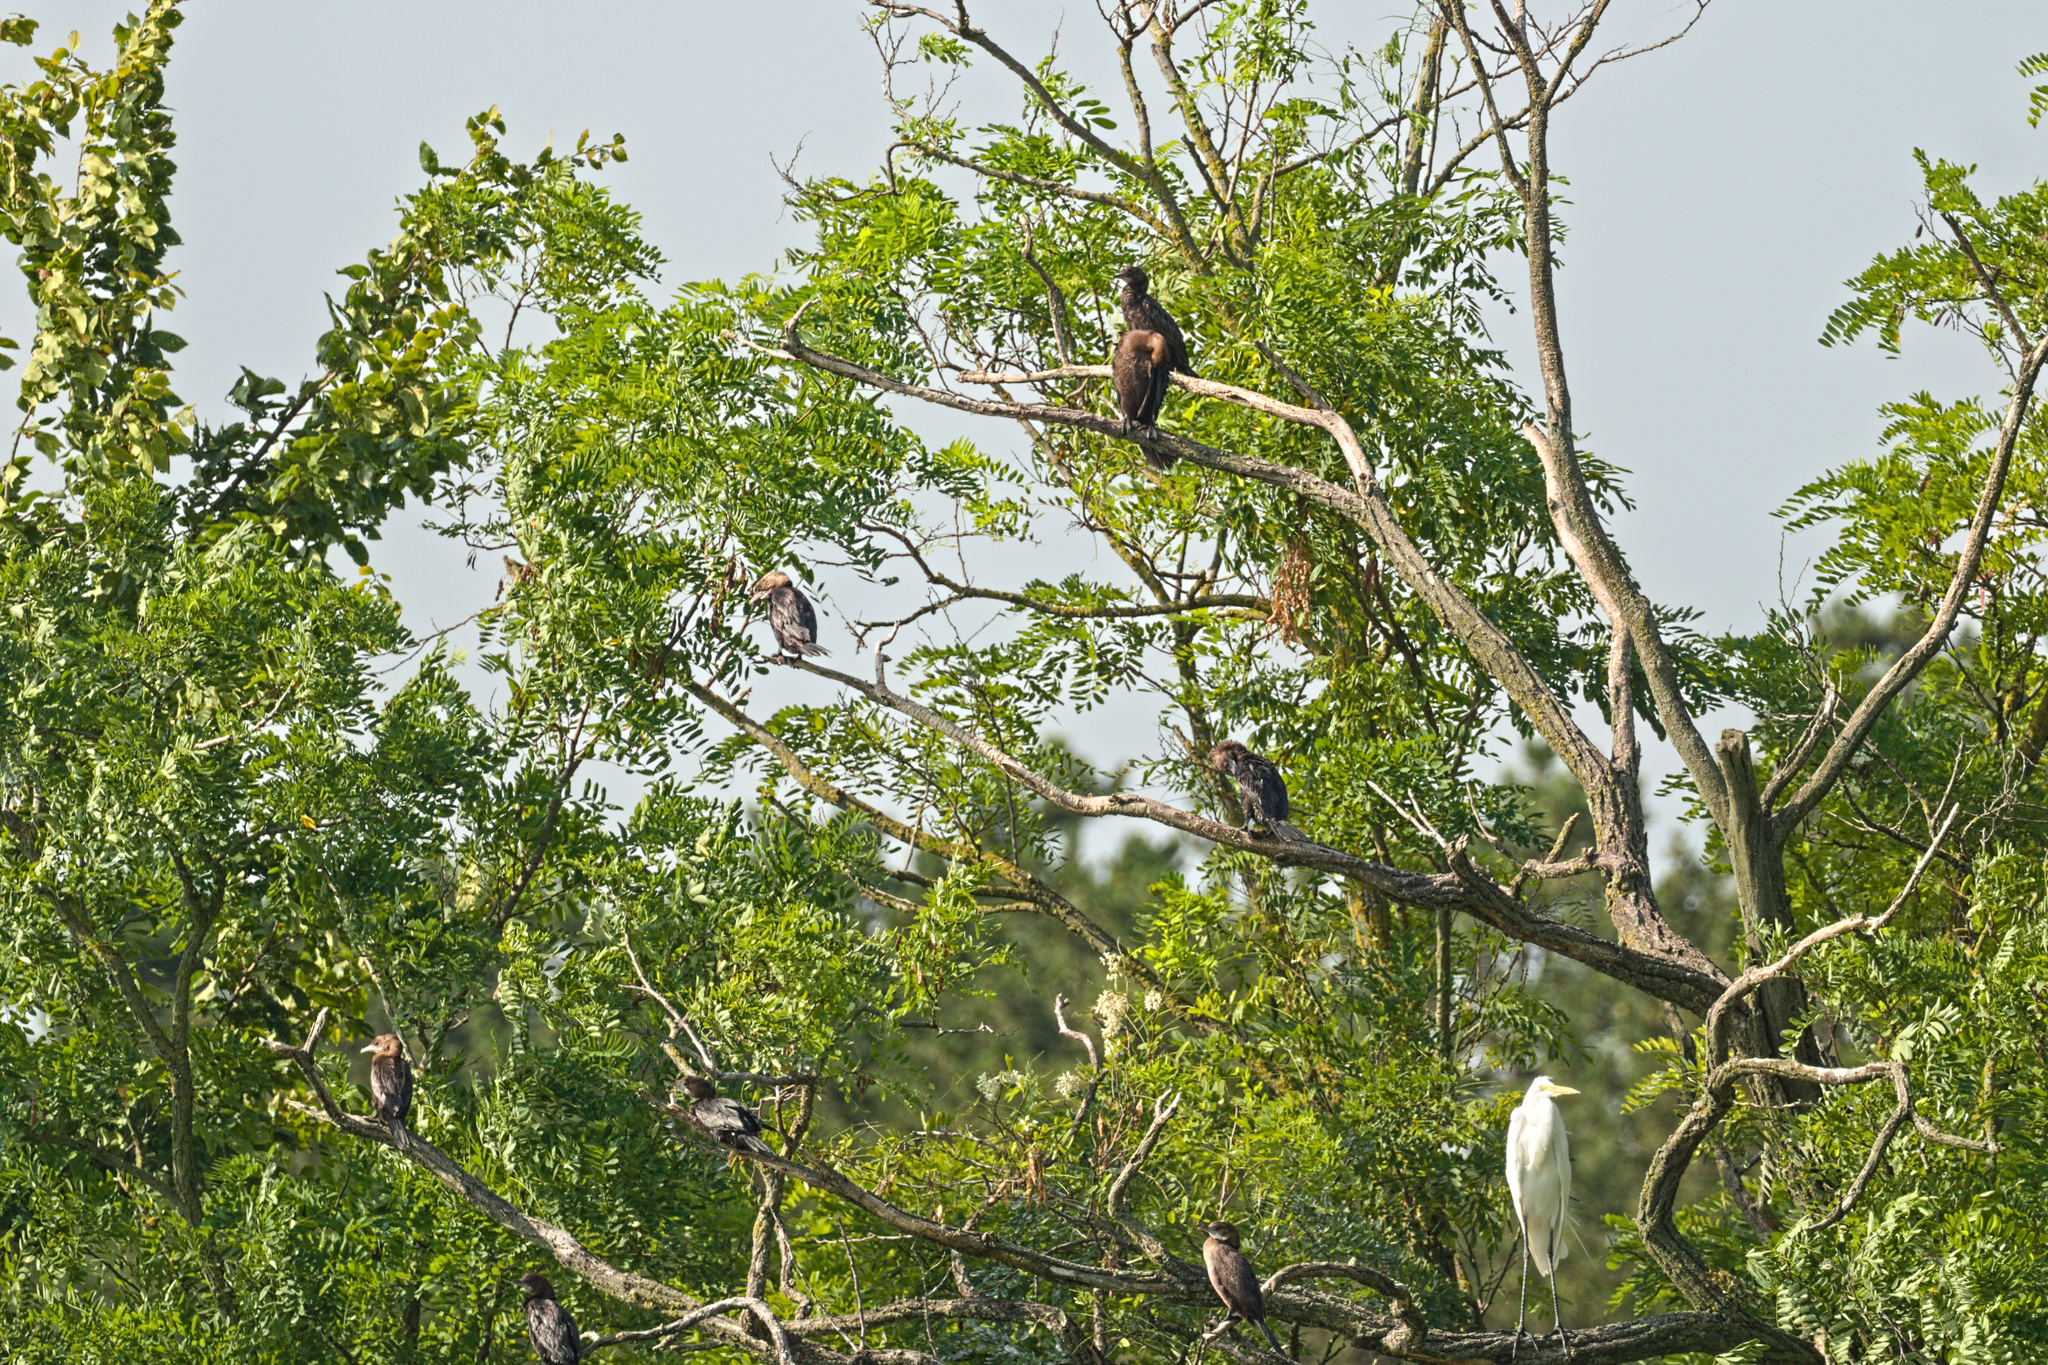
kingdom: Animalia
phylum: Chordata
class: Aves
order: Suliformes
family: Phalacrocoracidae
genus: Microcarbo
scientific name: Microcarbo pygmaeus
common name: Pygmy cormorant
